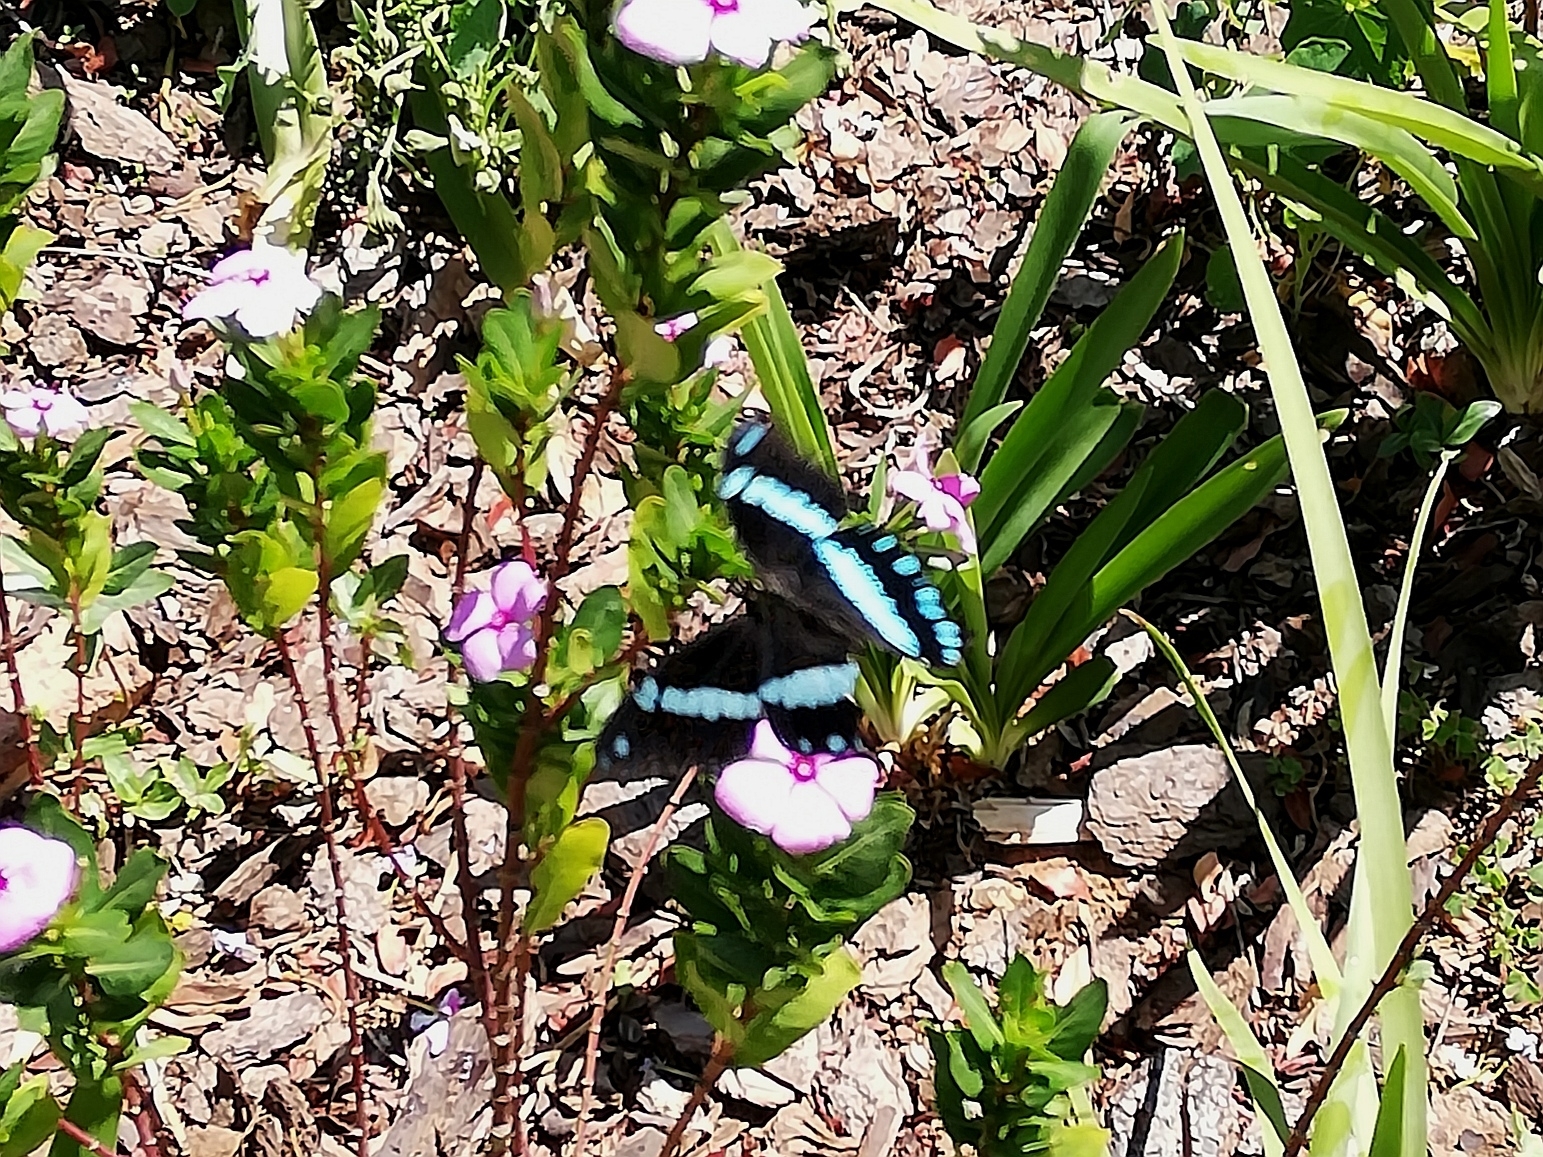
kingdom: Animalia
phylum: Arthropoda
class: Insecta
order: Lepidoptera
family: Papilionidae
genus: Papilio
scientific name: Papilio nireus
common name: Greenbanded swallowtail
